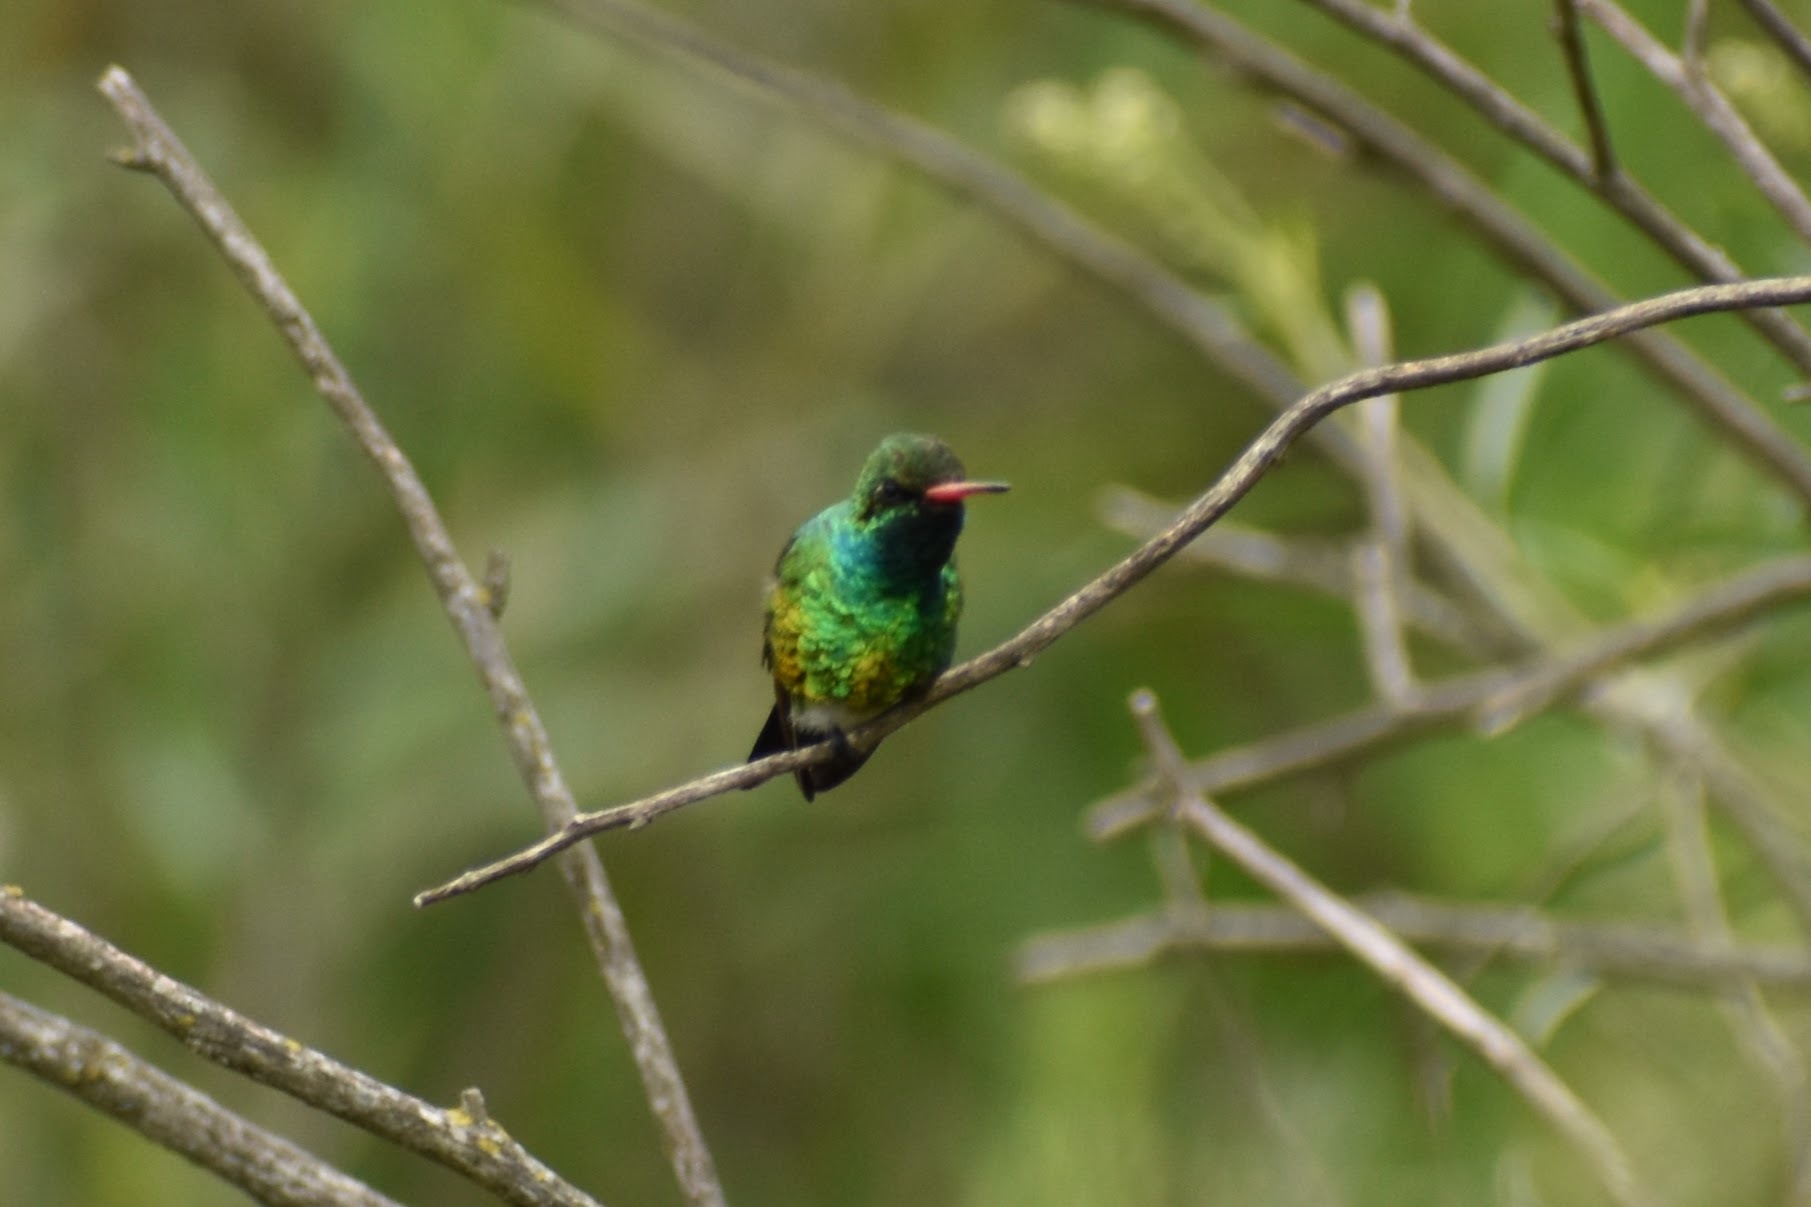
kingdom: Animalia
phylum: Chordata
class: Aves
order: Apodiformes
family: Trochilidae
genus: Chlorostilbon
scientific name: Chlorostilbon lucidus
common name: Glittering-bellied emerald
